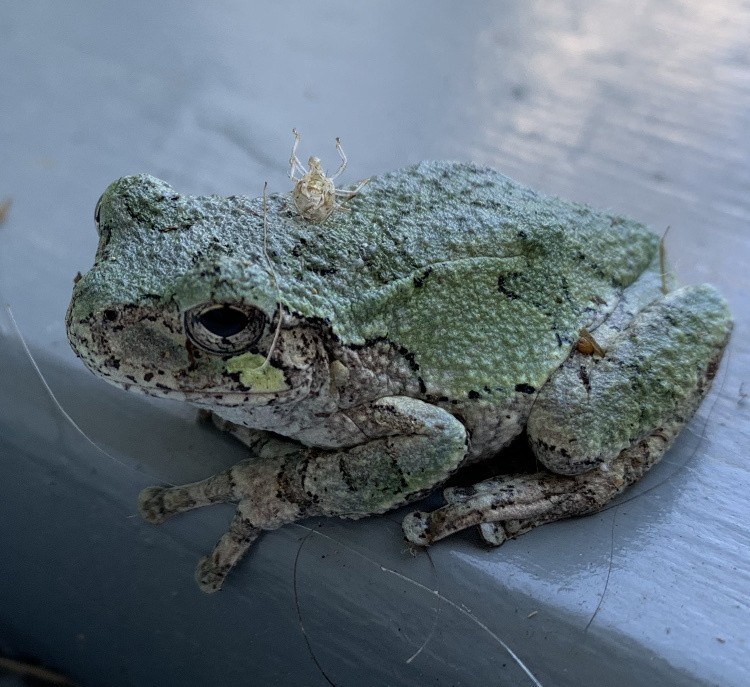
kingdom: Animalia
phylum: Chordata
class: Amphibia
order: Anura
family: Hylidae
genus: Dryophytes
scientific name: Dryophytes versicolor
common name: Gray treefrog
